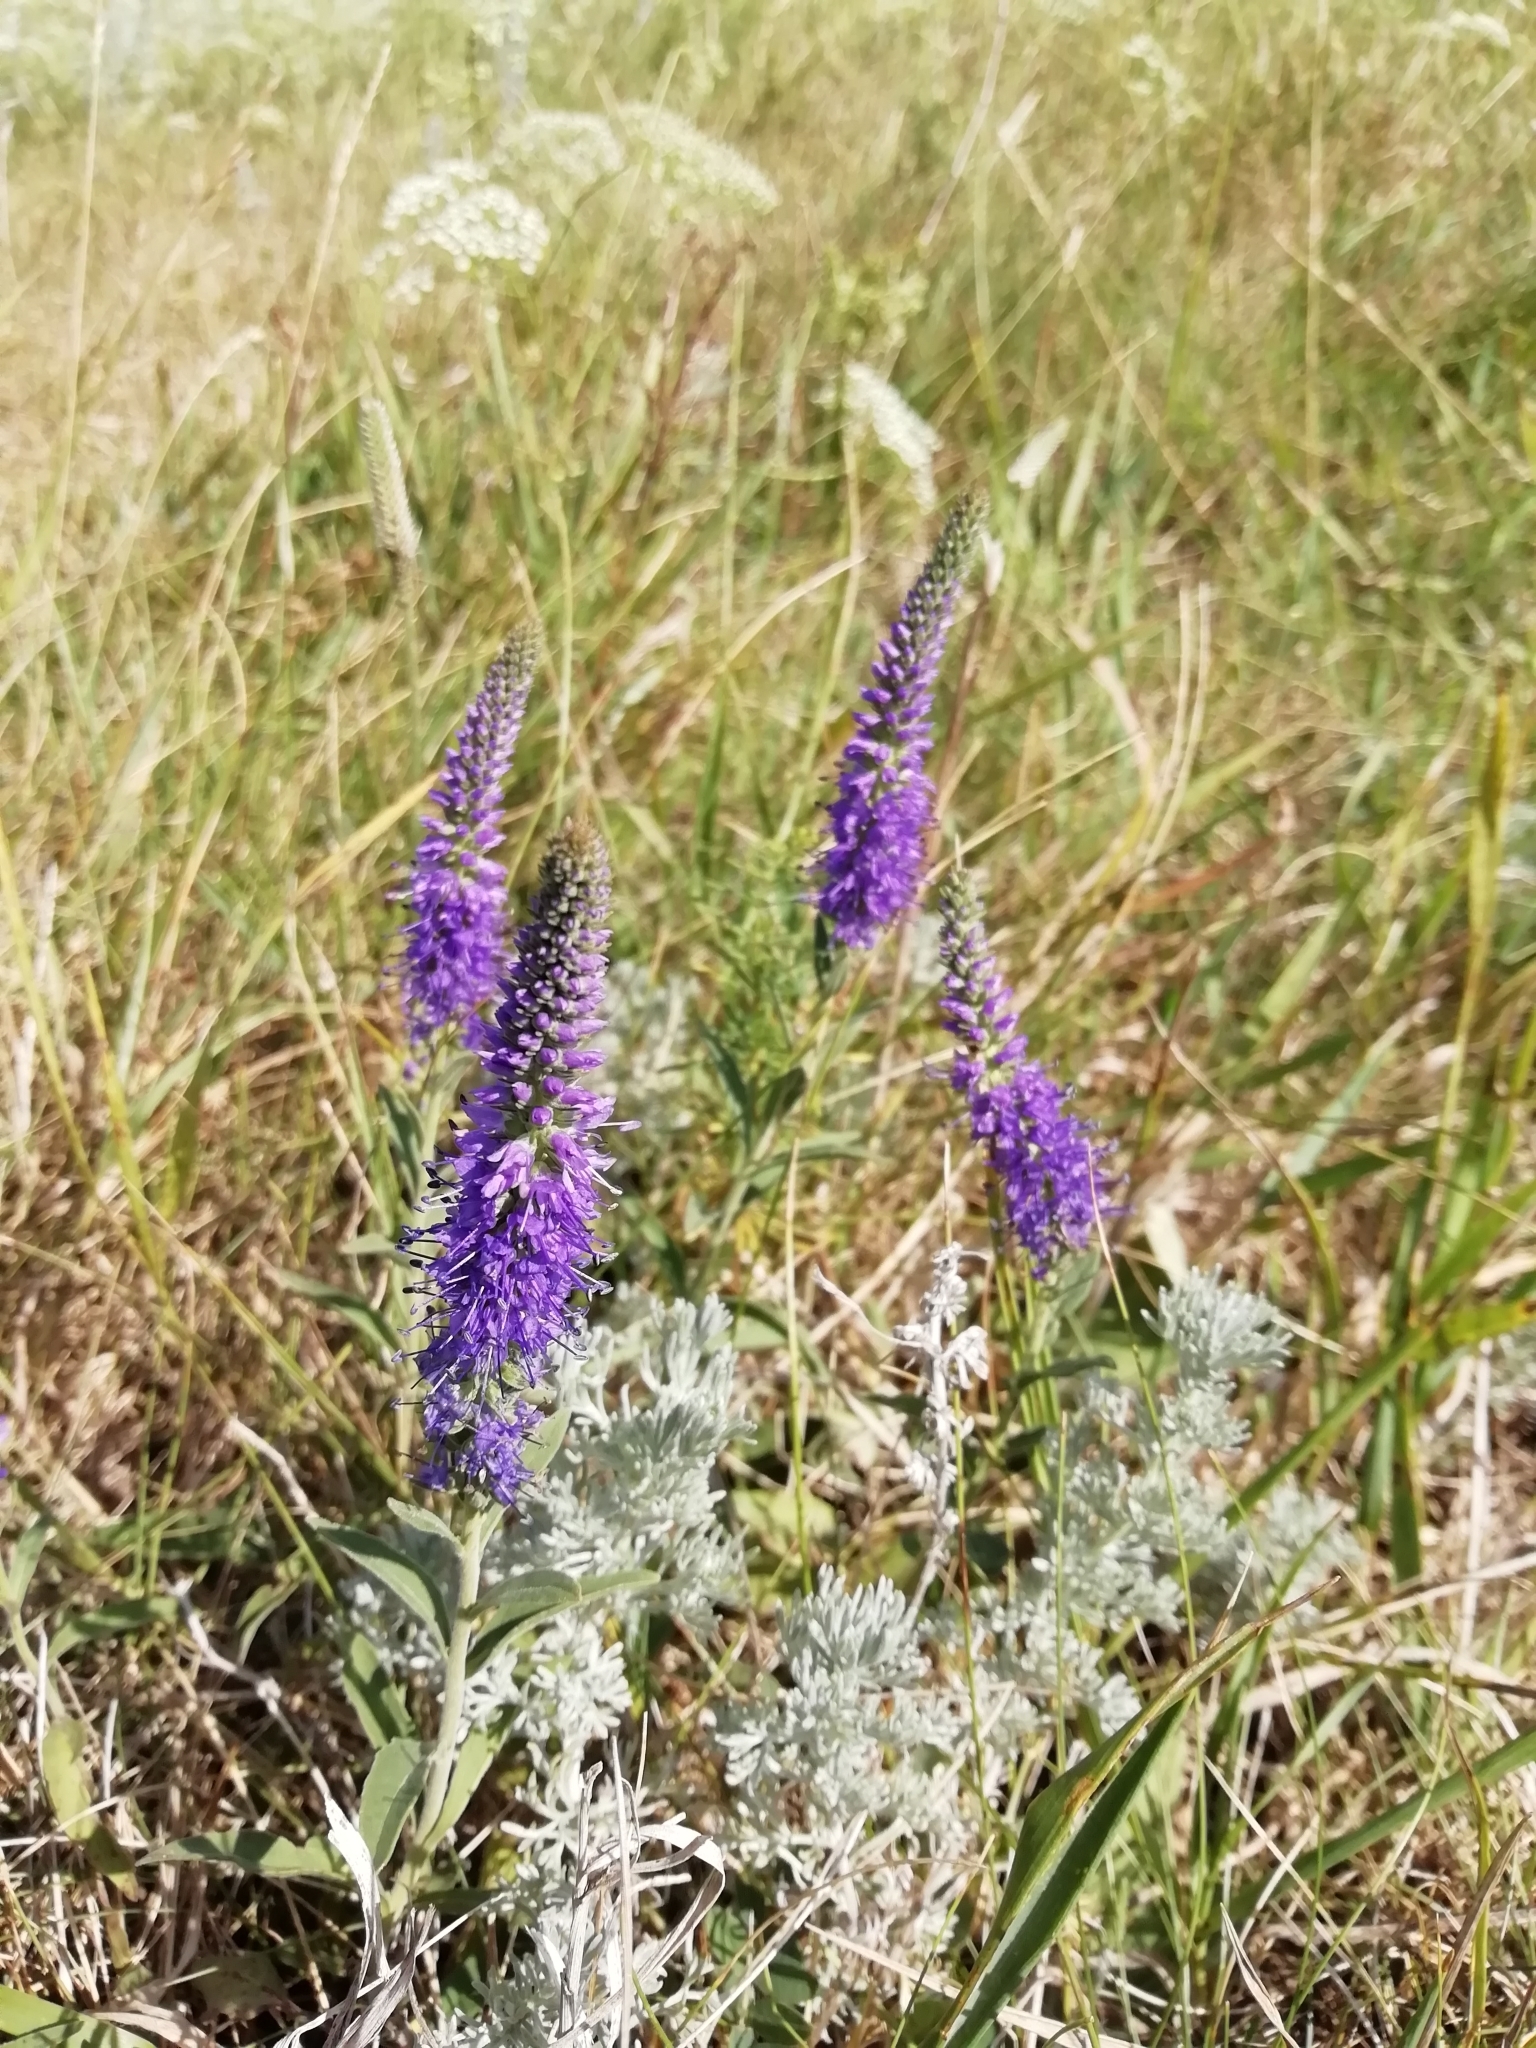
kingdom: Plantae
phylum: Tracheophyta
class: Magnoliopsida
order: Lamiales
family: Plantaginaceae
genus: Veronica
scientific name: Veronica incana
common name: Silver speedwell
